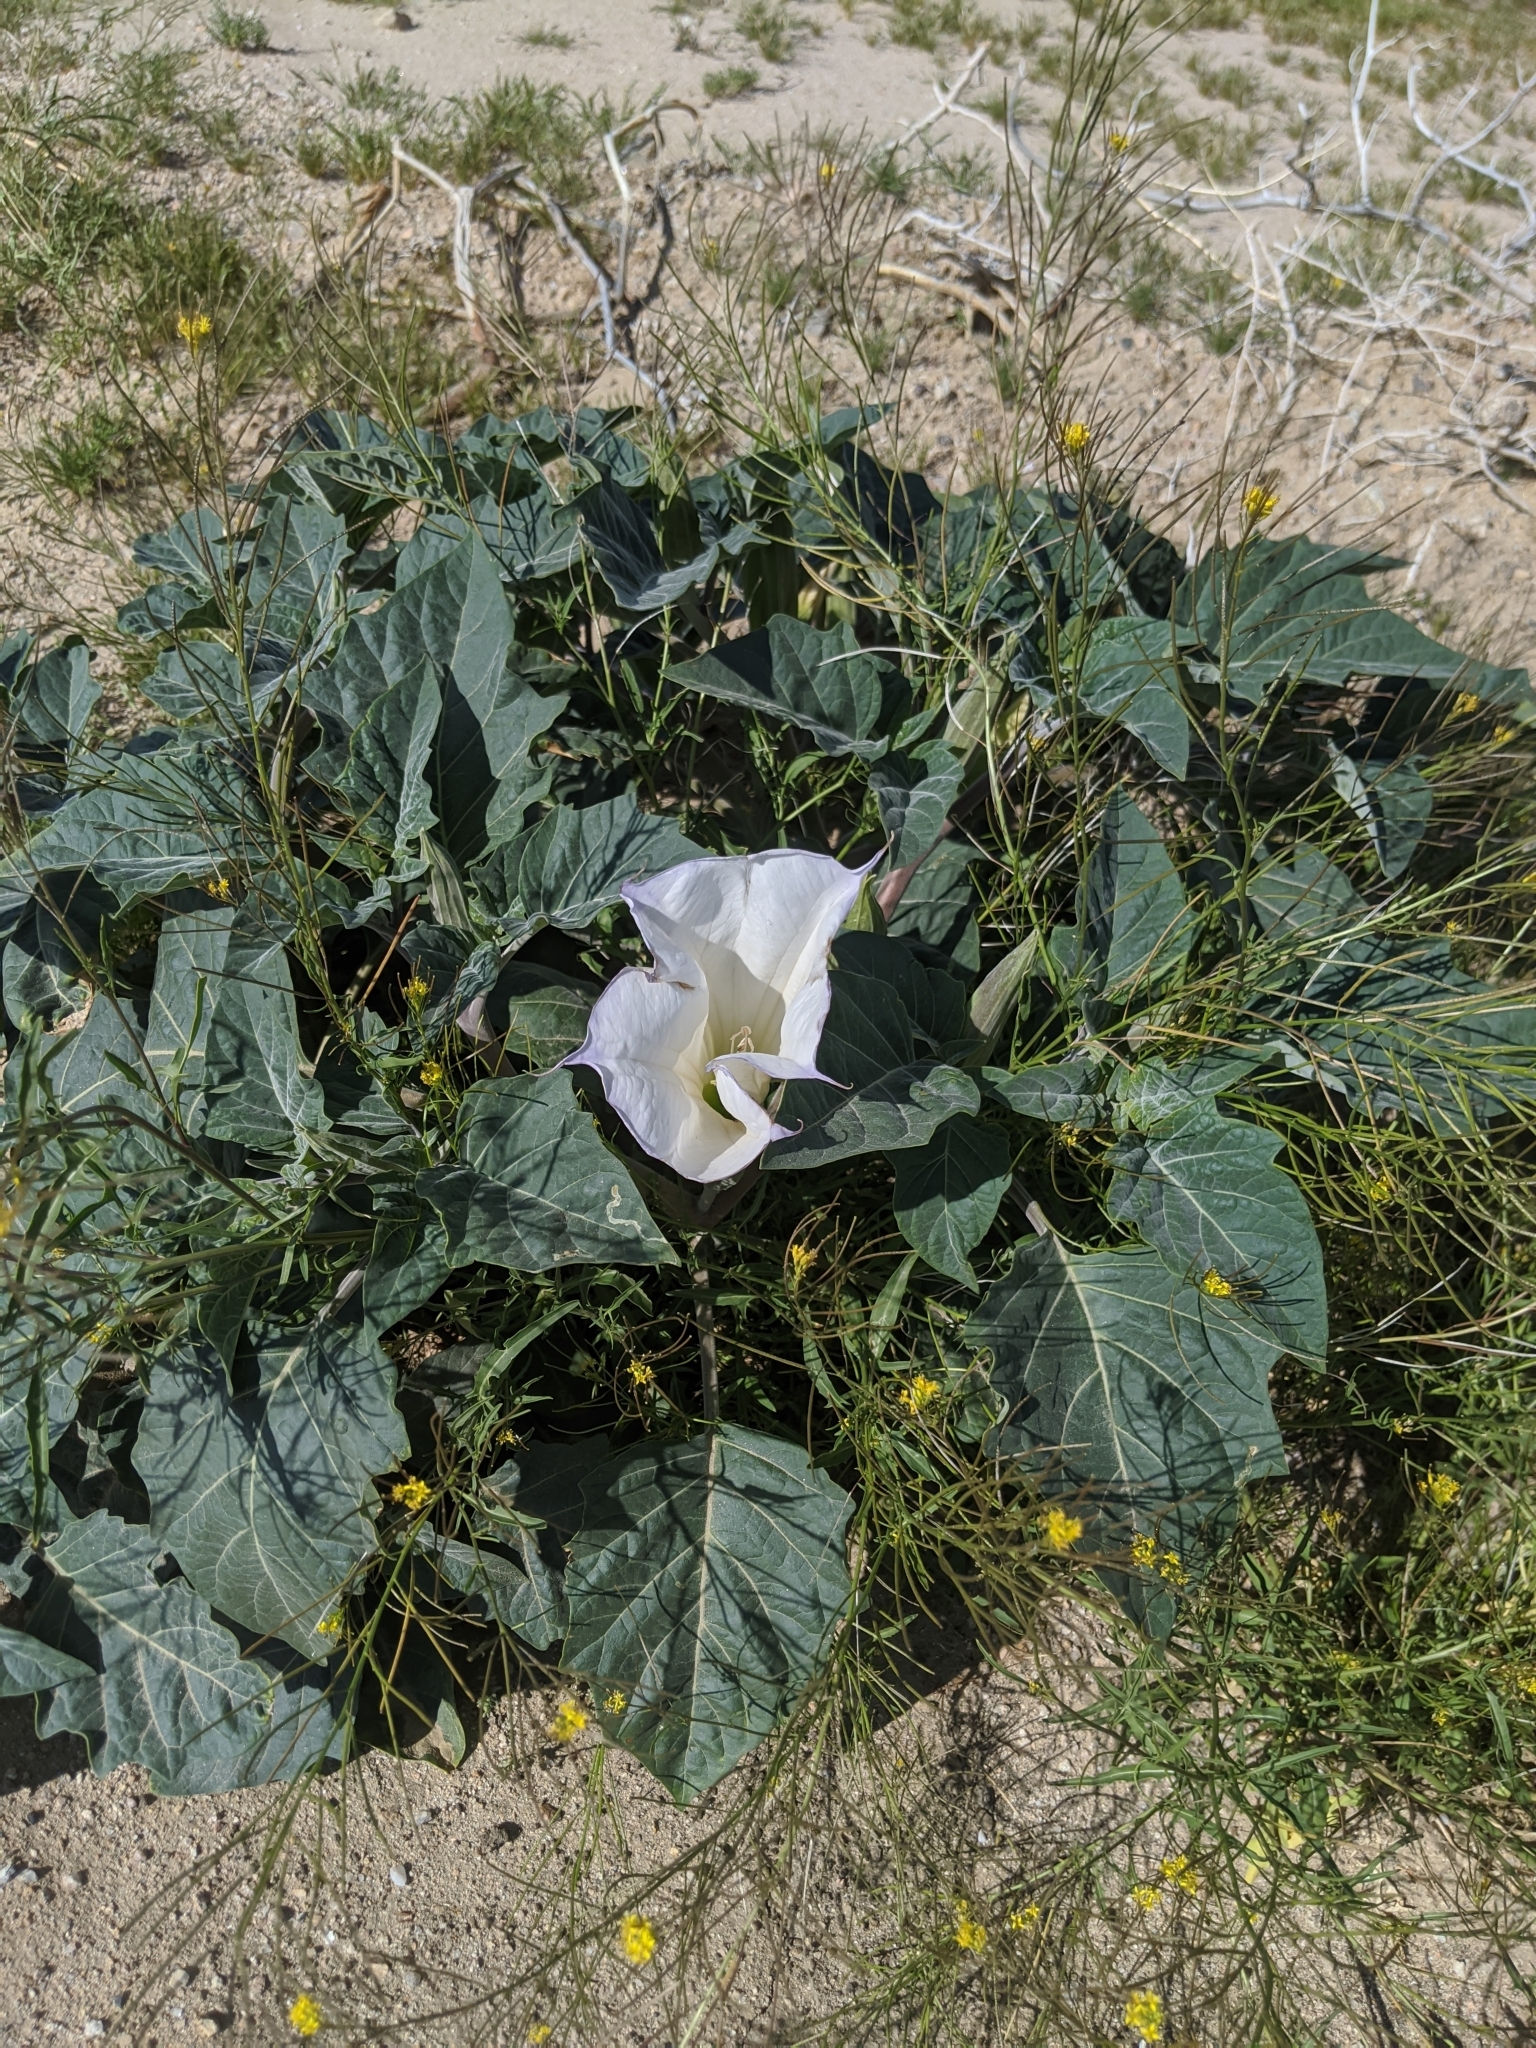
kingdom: Plantae
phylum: Tracheophyta
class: Magnoliopsida
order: Solanales
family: Solanaceae
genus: Datura
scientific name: Datura wrightii
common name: Sacred thorn-apple
